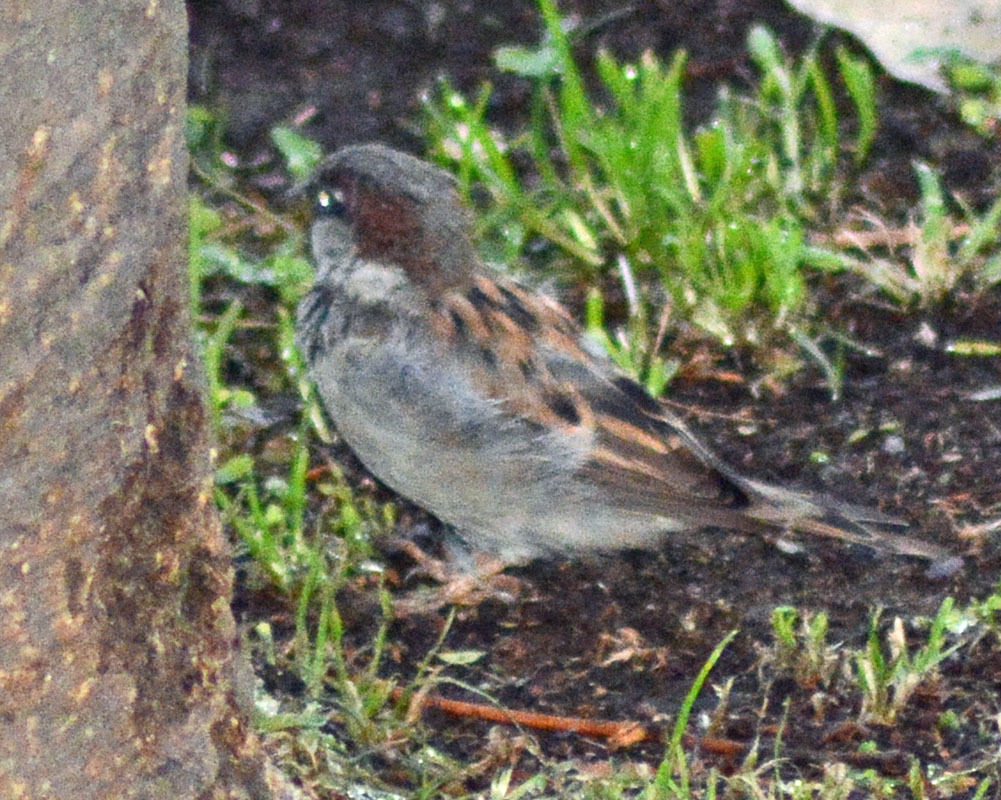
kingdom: Animalia
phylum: Chordata
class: Aves
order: Passeriformes
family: Passeridae
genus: Passer
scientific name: Passer domesticus
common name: House sparrow
